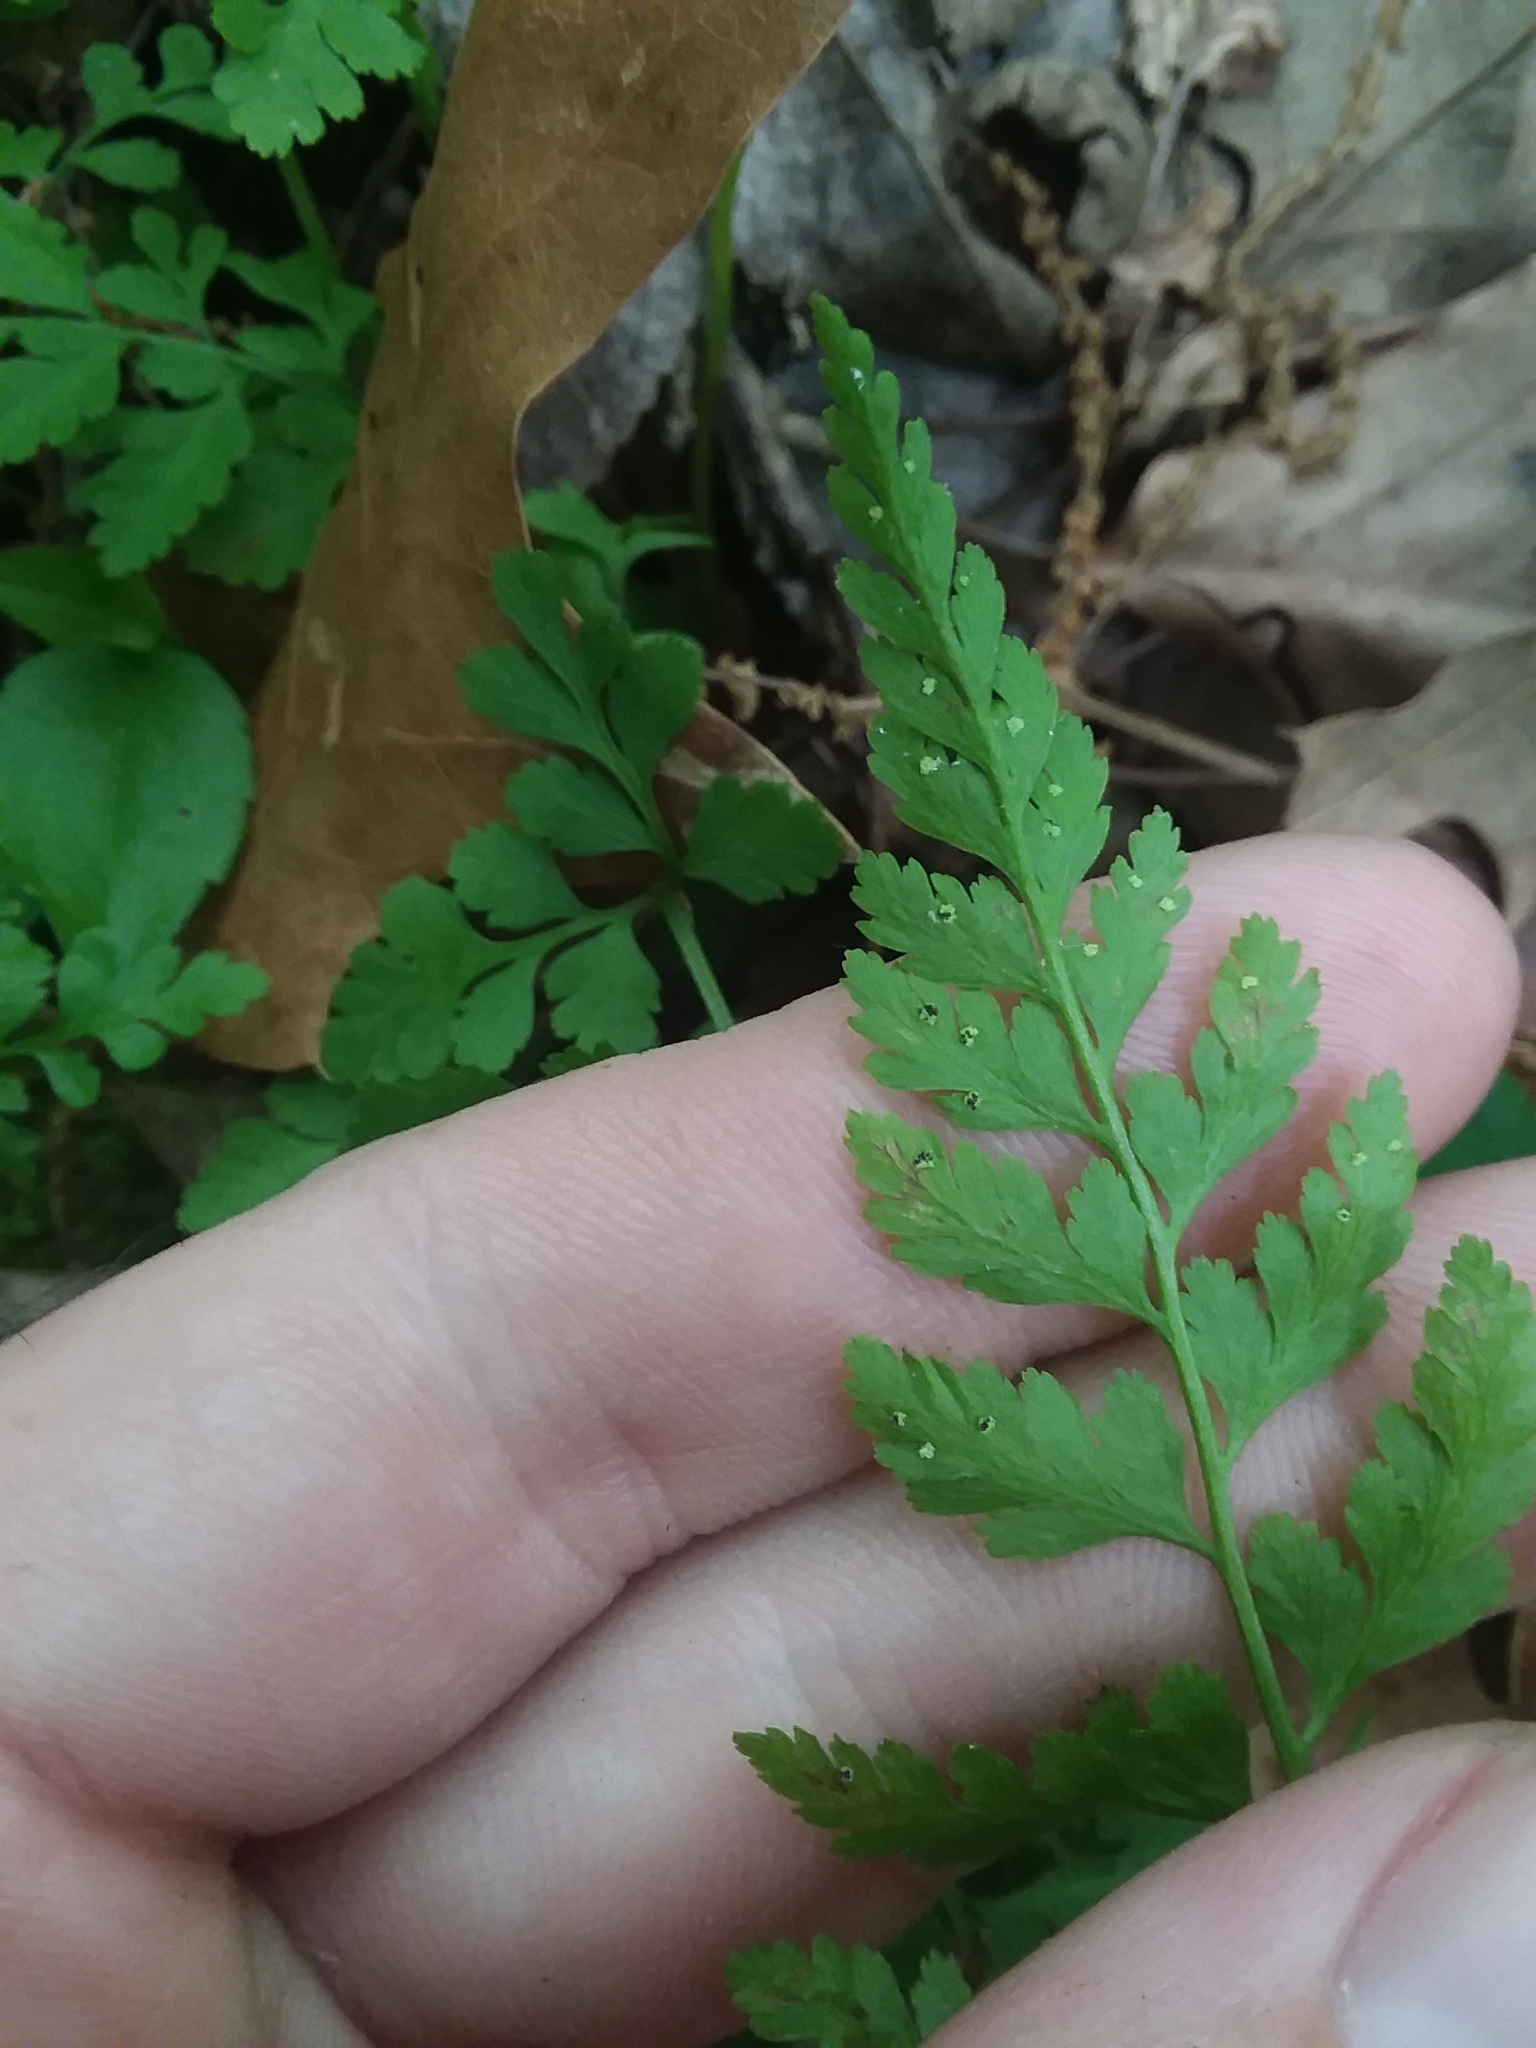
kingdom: Plantae
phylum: Tracheophyta
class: Polypodiopsida
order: Polypodiales
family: Cystopteridaceae
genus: Cystopteris
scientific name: Cystopteris protrusa
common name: Lowland brittle fern
